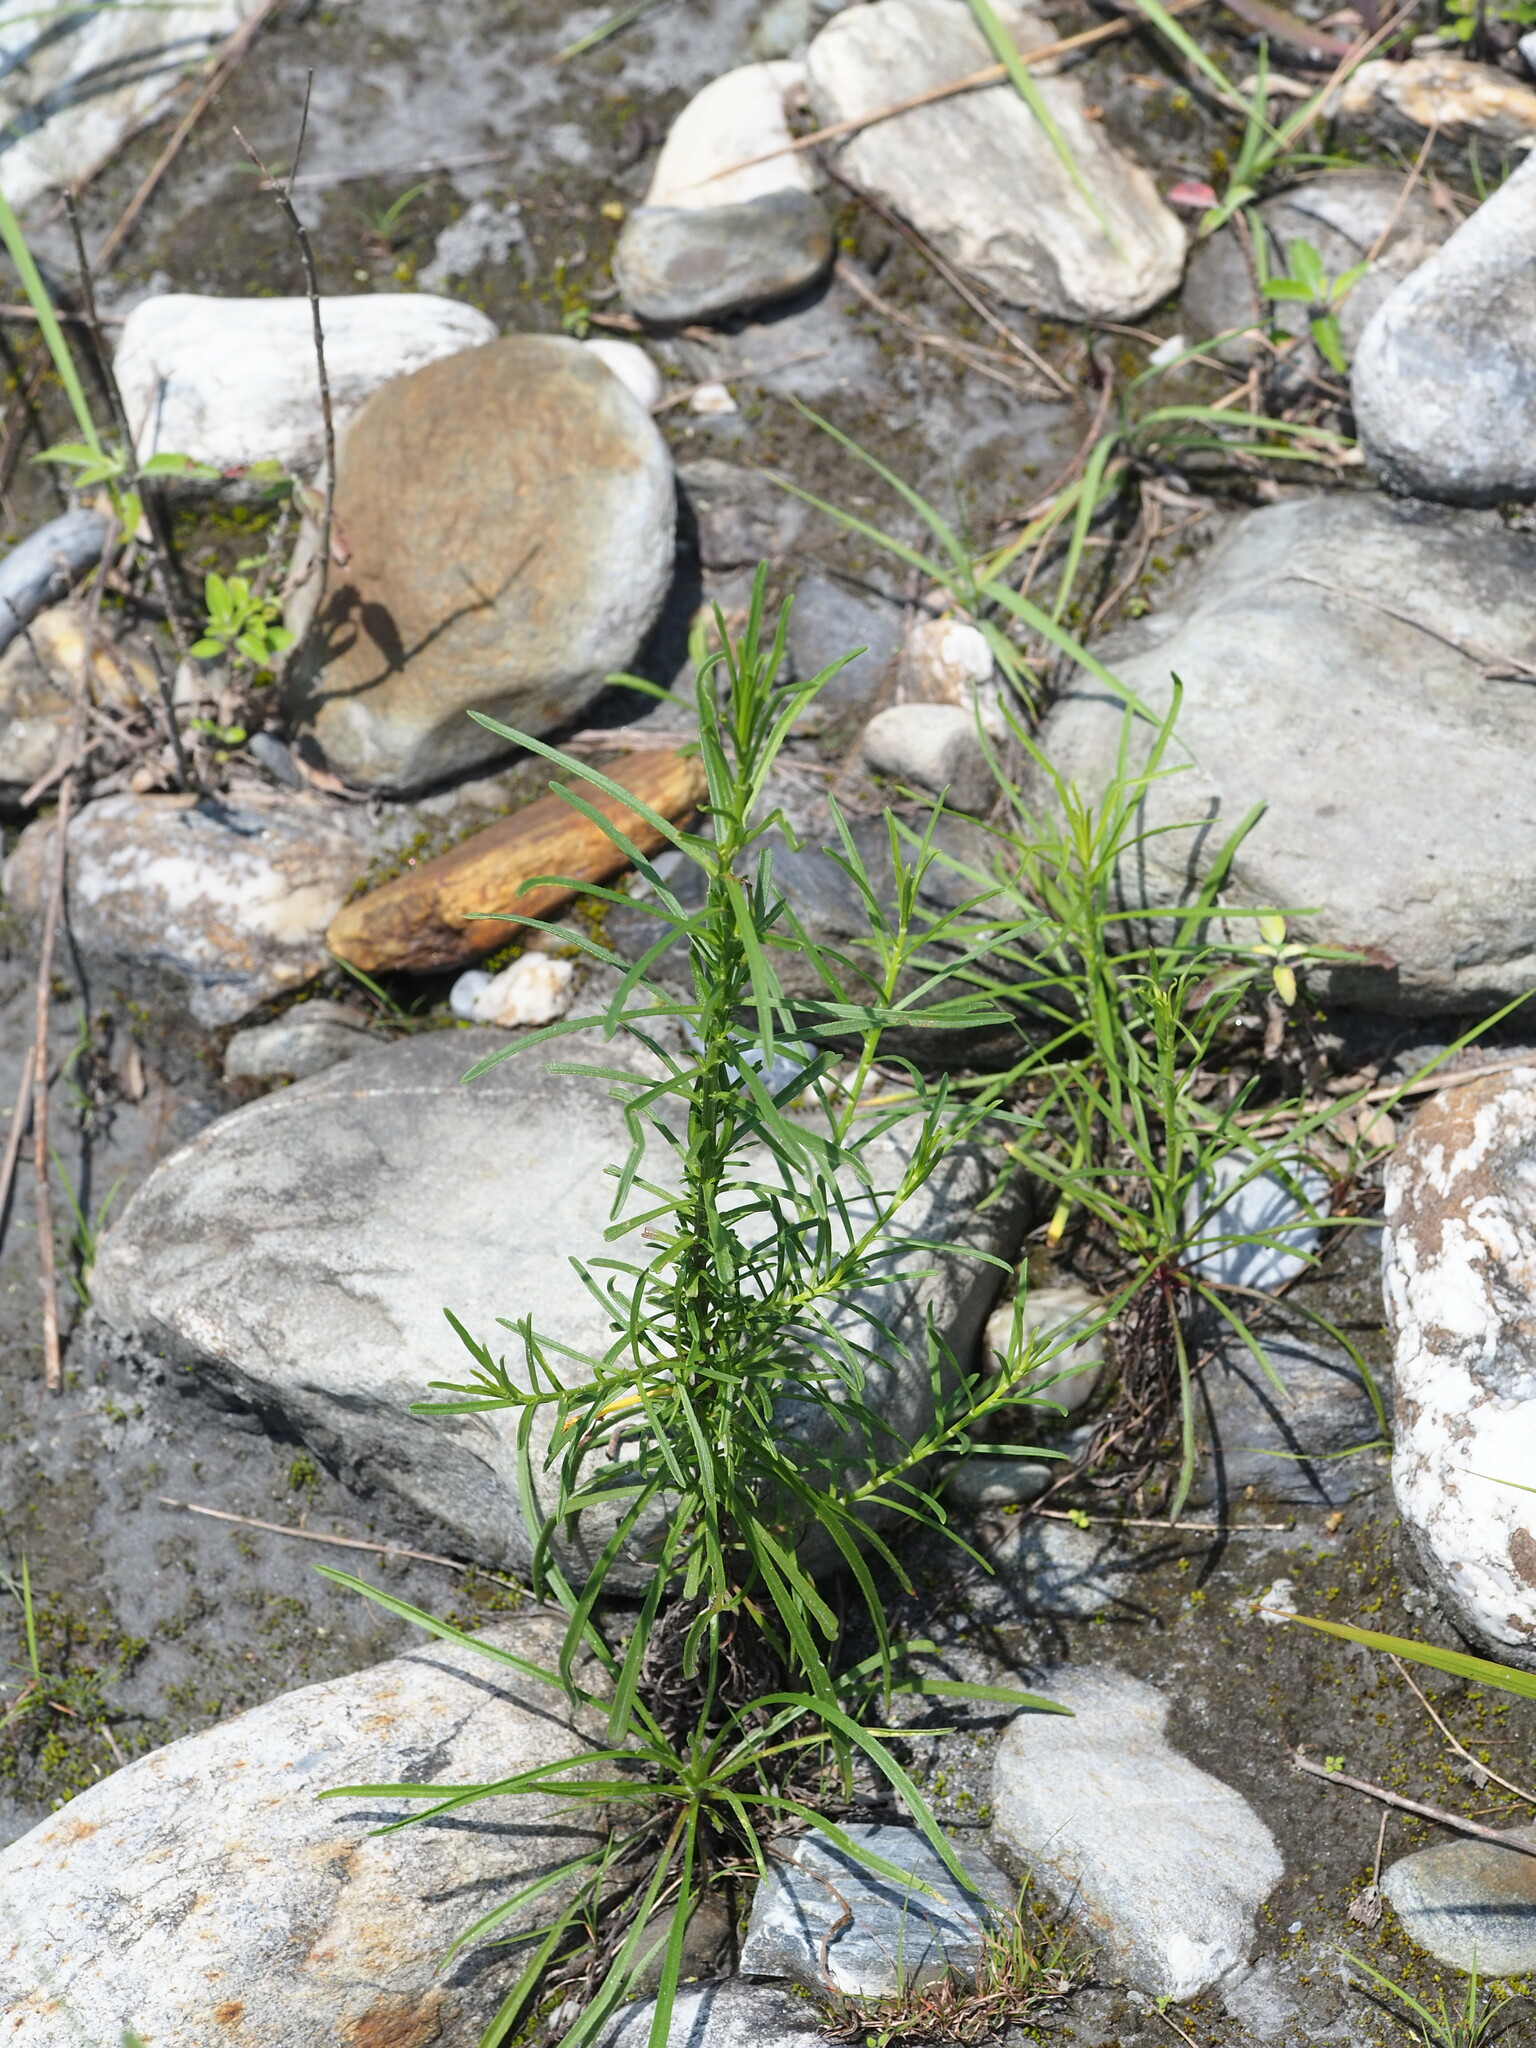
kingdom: Plantae
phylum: Tracheophyta
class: Magnoliopsida
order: Asterales
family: Asteraceae
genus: Heteropappus
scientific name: Heteropappus altaicus
